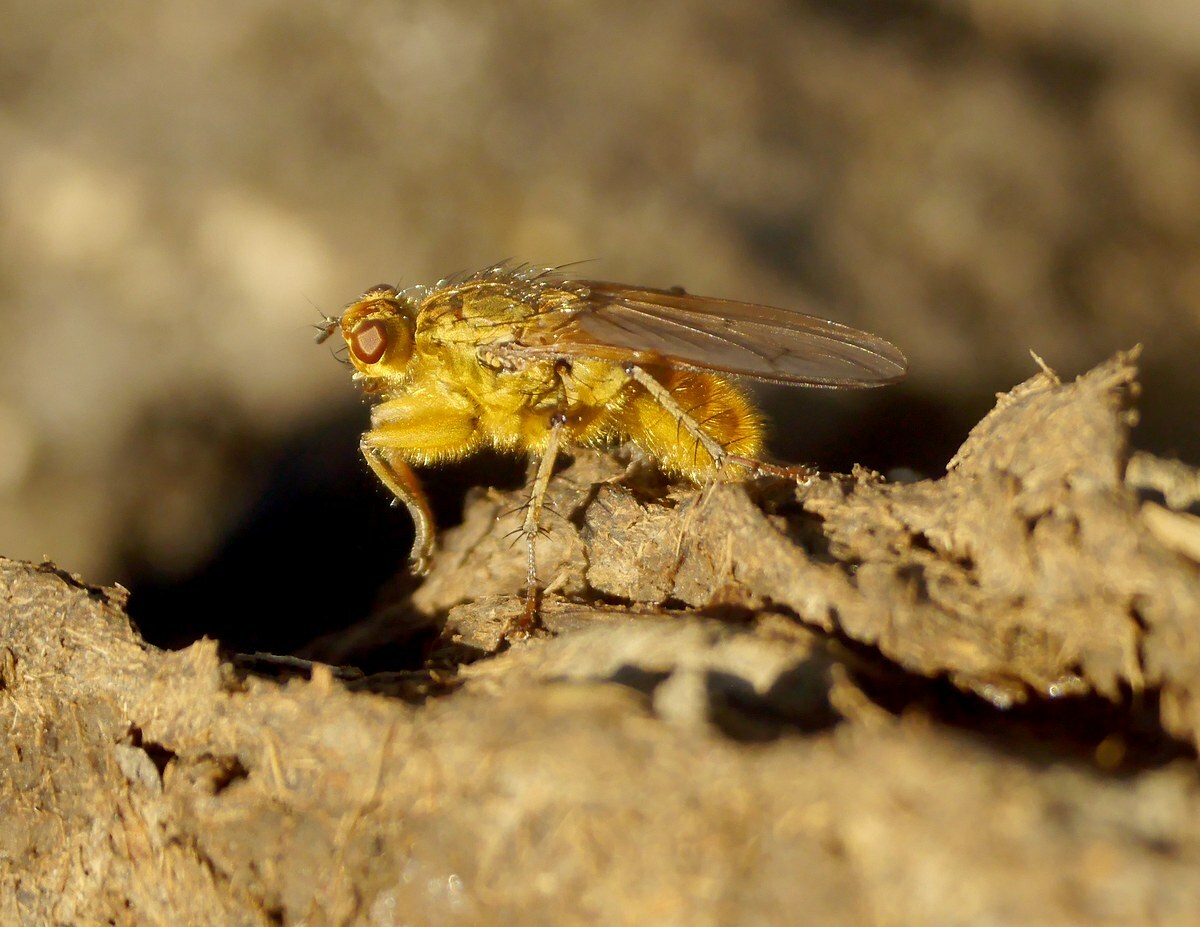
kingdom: Animalia
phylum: Arthropoda
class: Insecta
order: Diptera
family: Scathophagidae
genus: Scathophaga
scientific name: Scathophaga stercoraria
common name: Yellow dung fly
